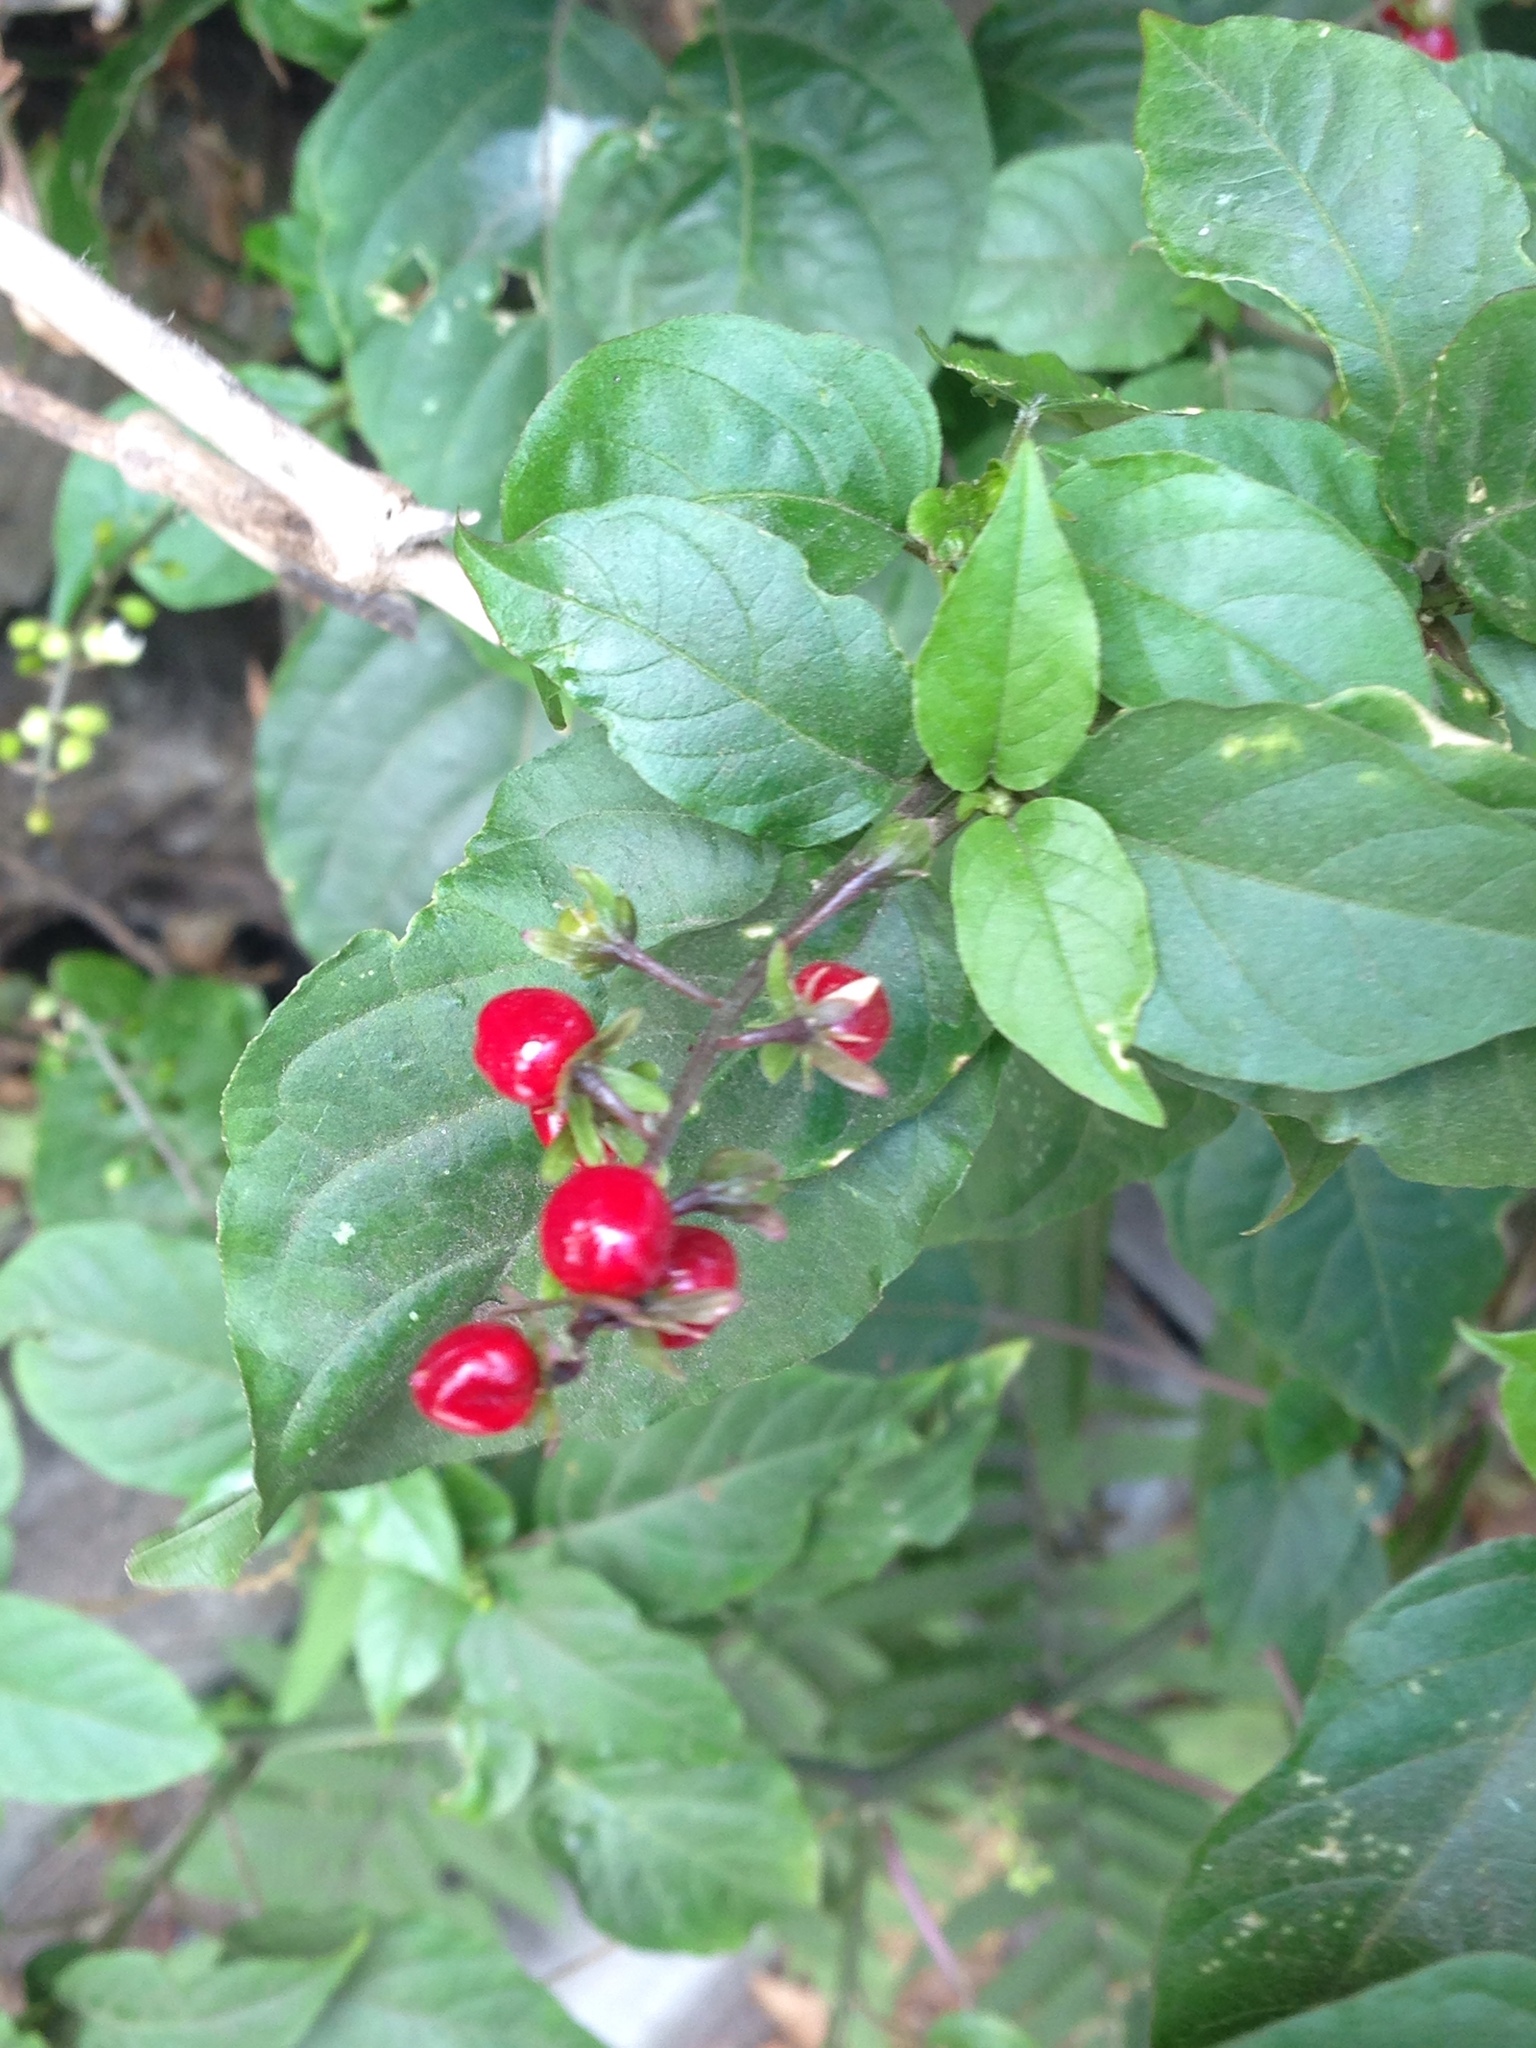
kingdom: Plantae
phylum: Tracheophyta
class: Magnoliopsida
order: Caryophyllales
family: Phytolaccaceae
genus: Rivina
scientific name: Rivina humilis
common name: Rougeplant
